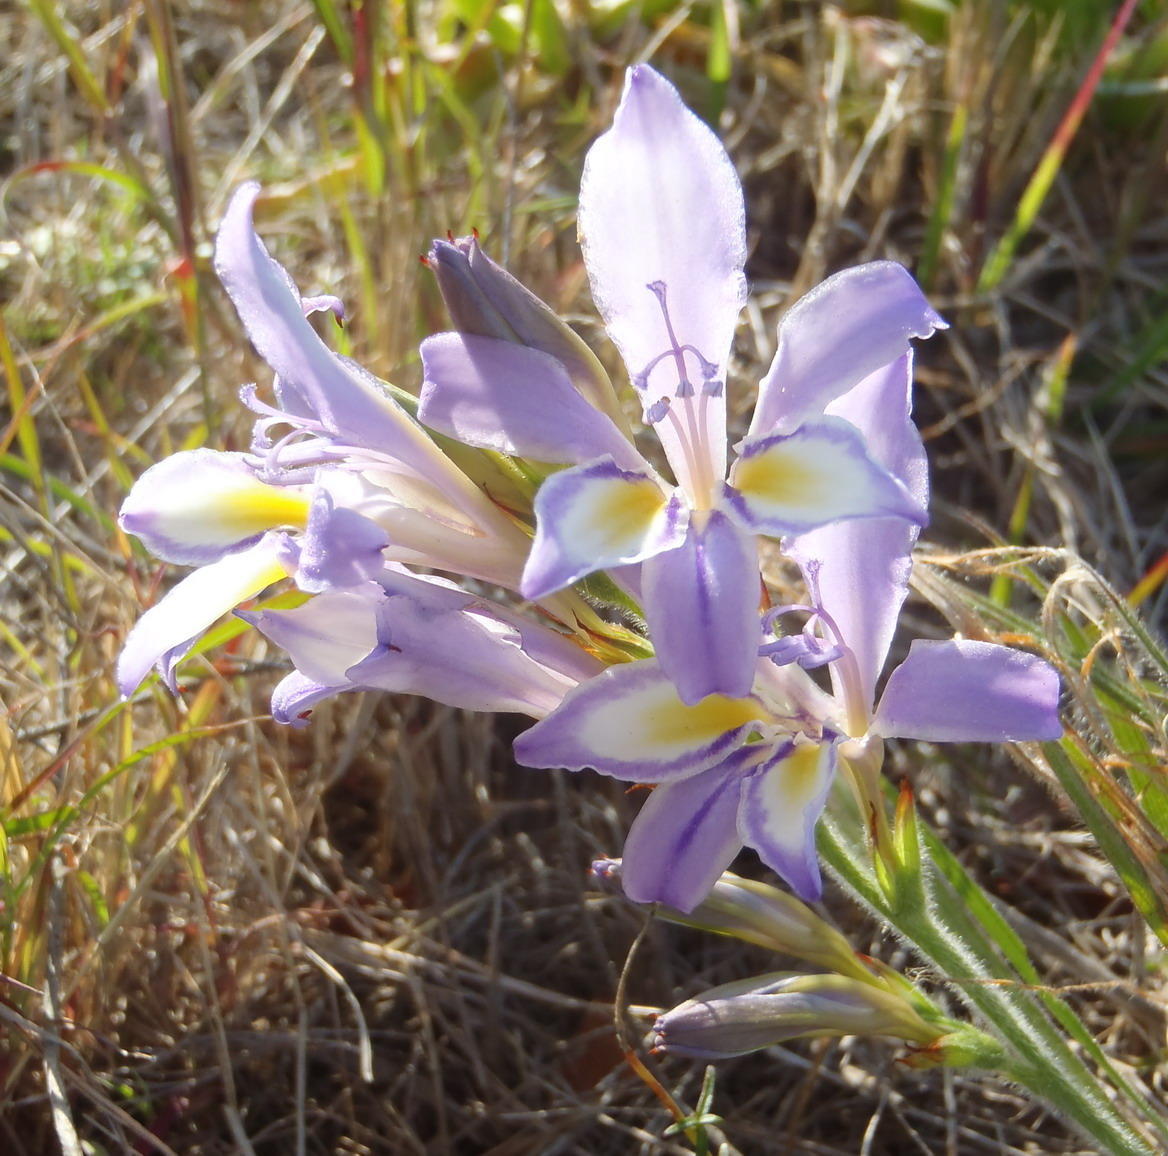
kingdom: Plantae
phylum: Tracheophyta
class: Liliopsida
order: Asparagales
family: Iridaceae
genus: Babiana
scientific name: Babiana fourcadei
